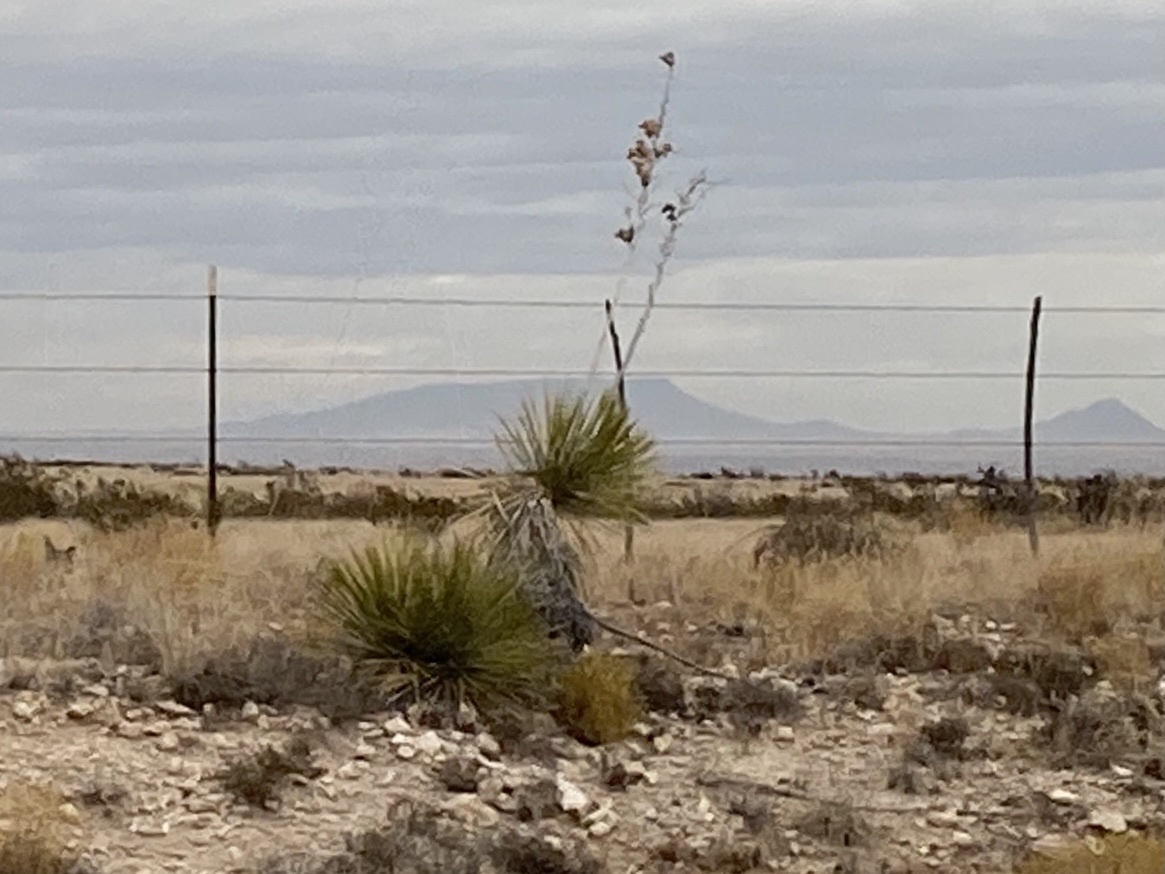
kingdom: Plantae
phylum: Tracheophyta
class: Liliopsida
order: Asparagales
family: Asparagaceae
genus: Yucca
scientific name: Yucca elata
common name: Palmella
